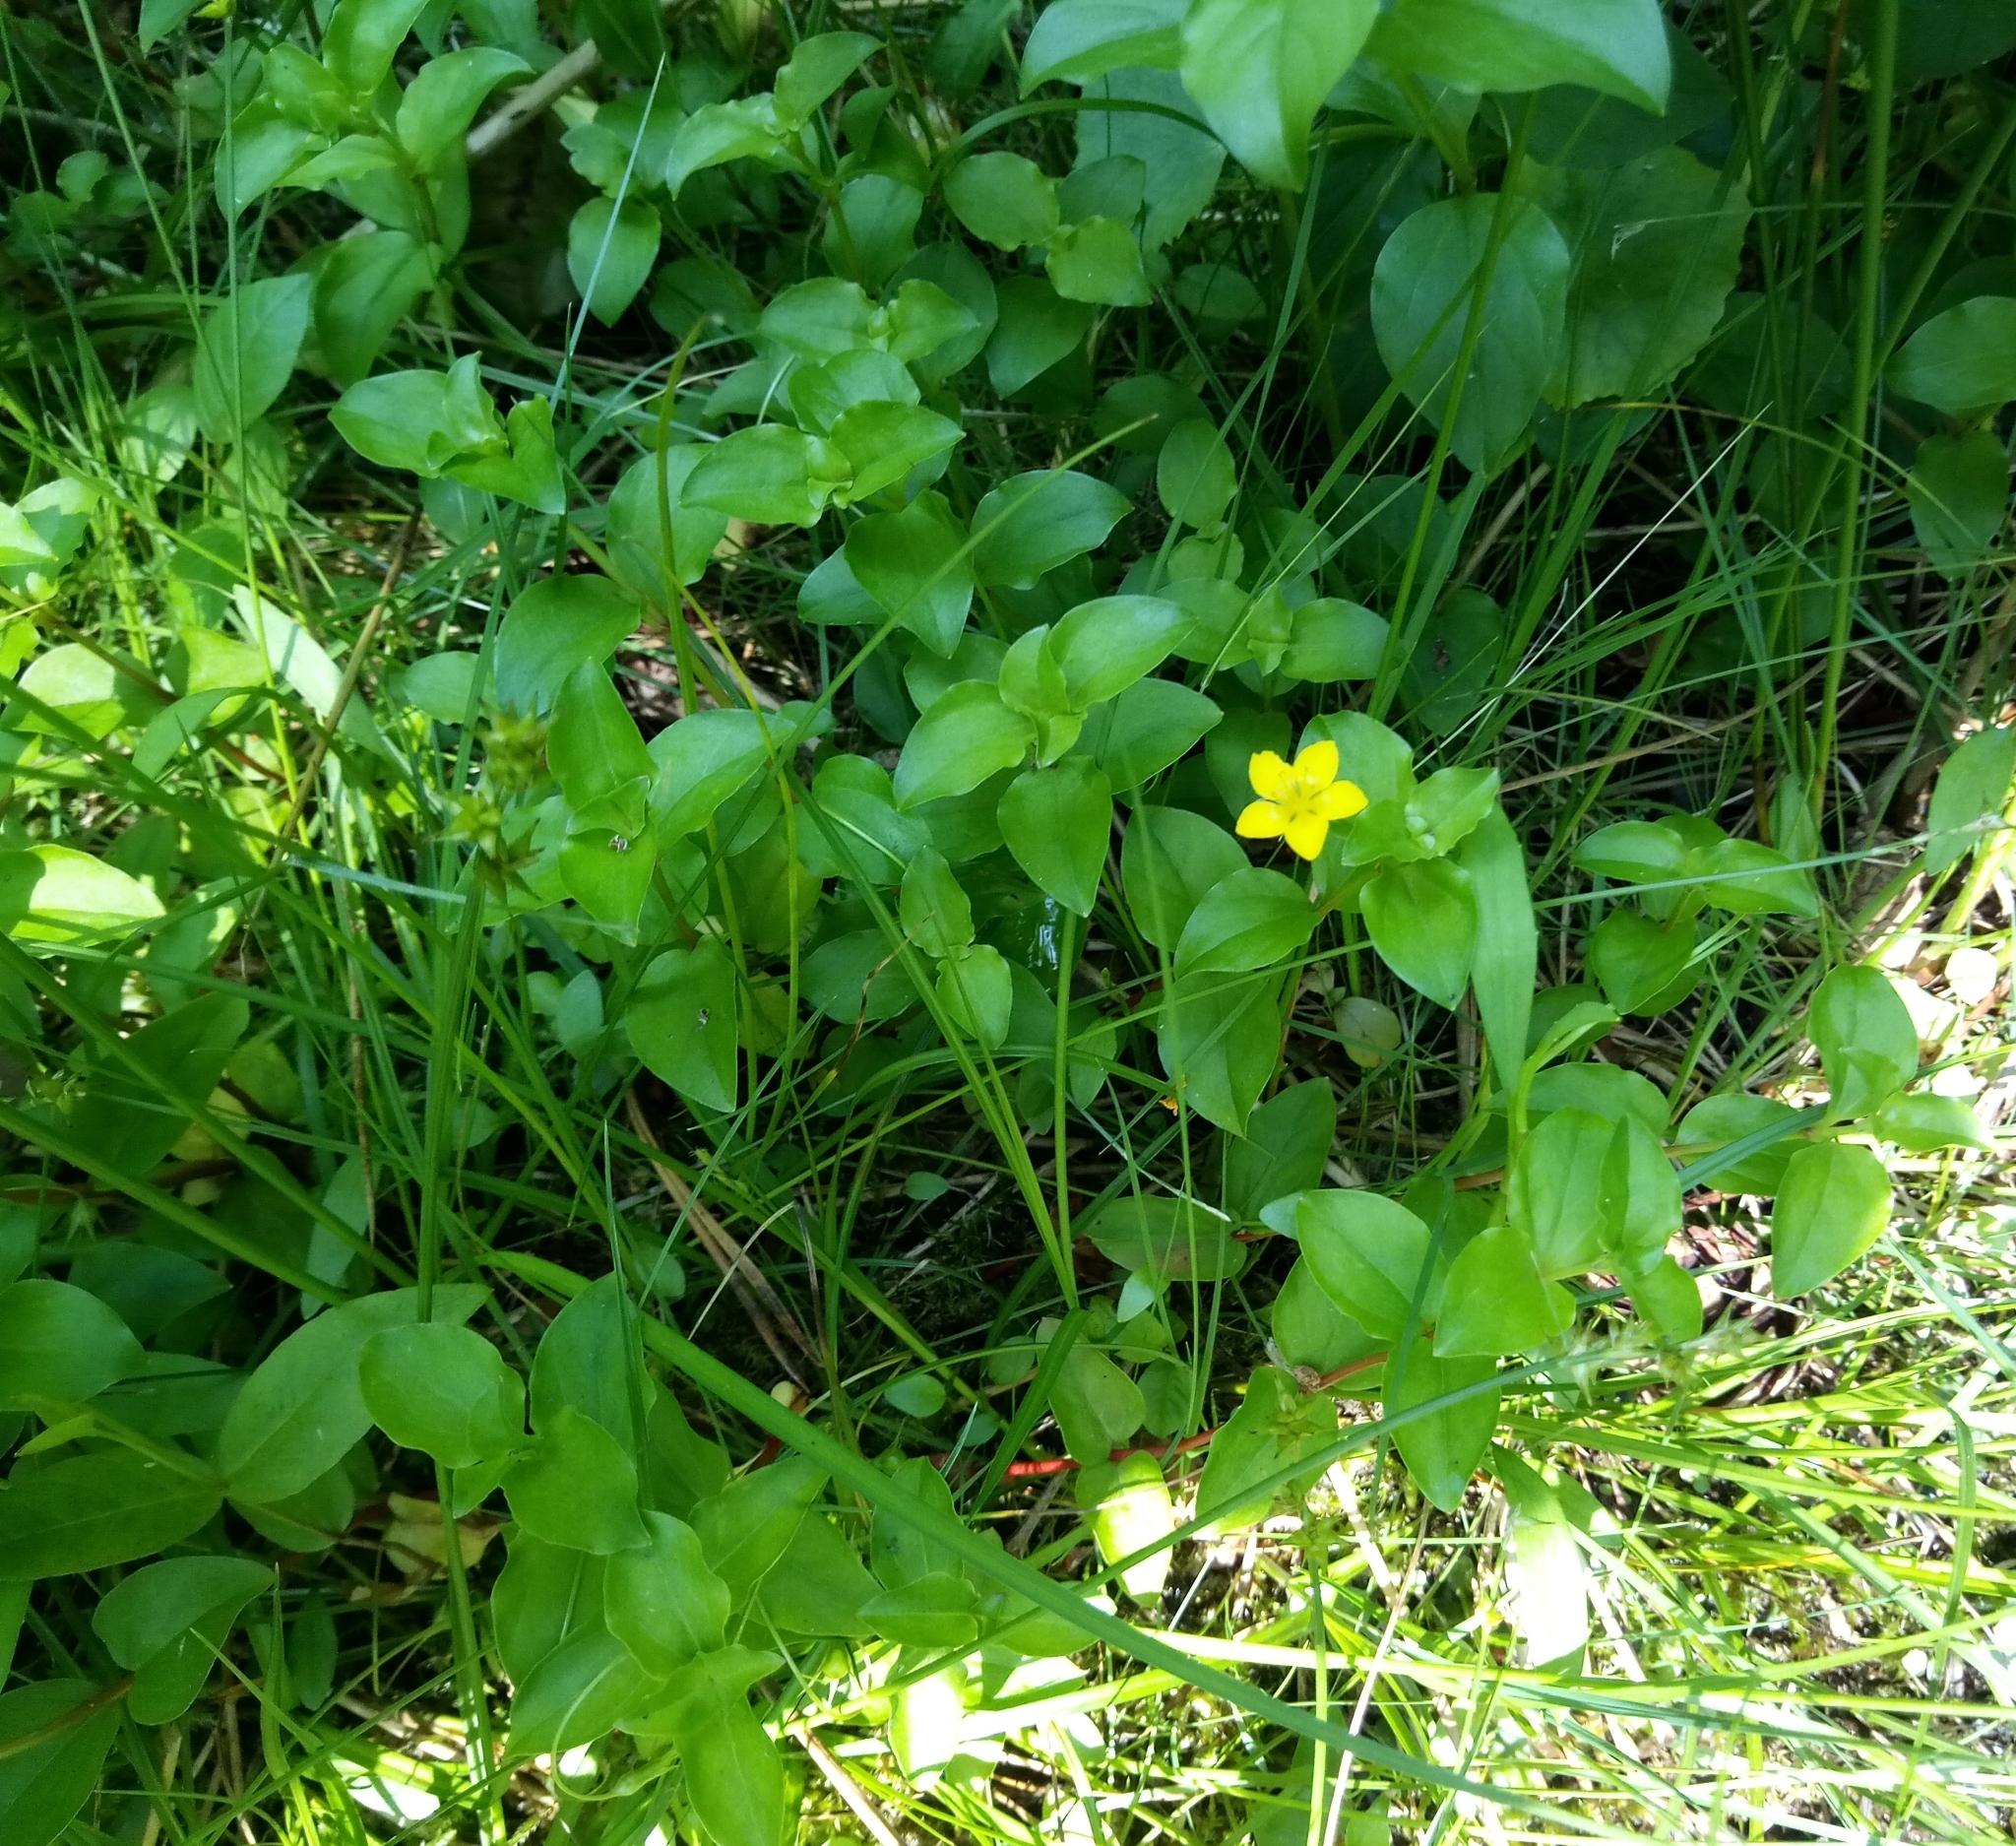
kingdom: Plantae
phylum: Tracheophyta
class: Magnoliopsida
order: Ericales
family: Primulaceae
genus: Lysimachia
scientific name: Lysimachia nemorum
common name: Yellow pimpernel
